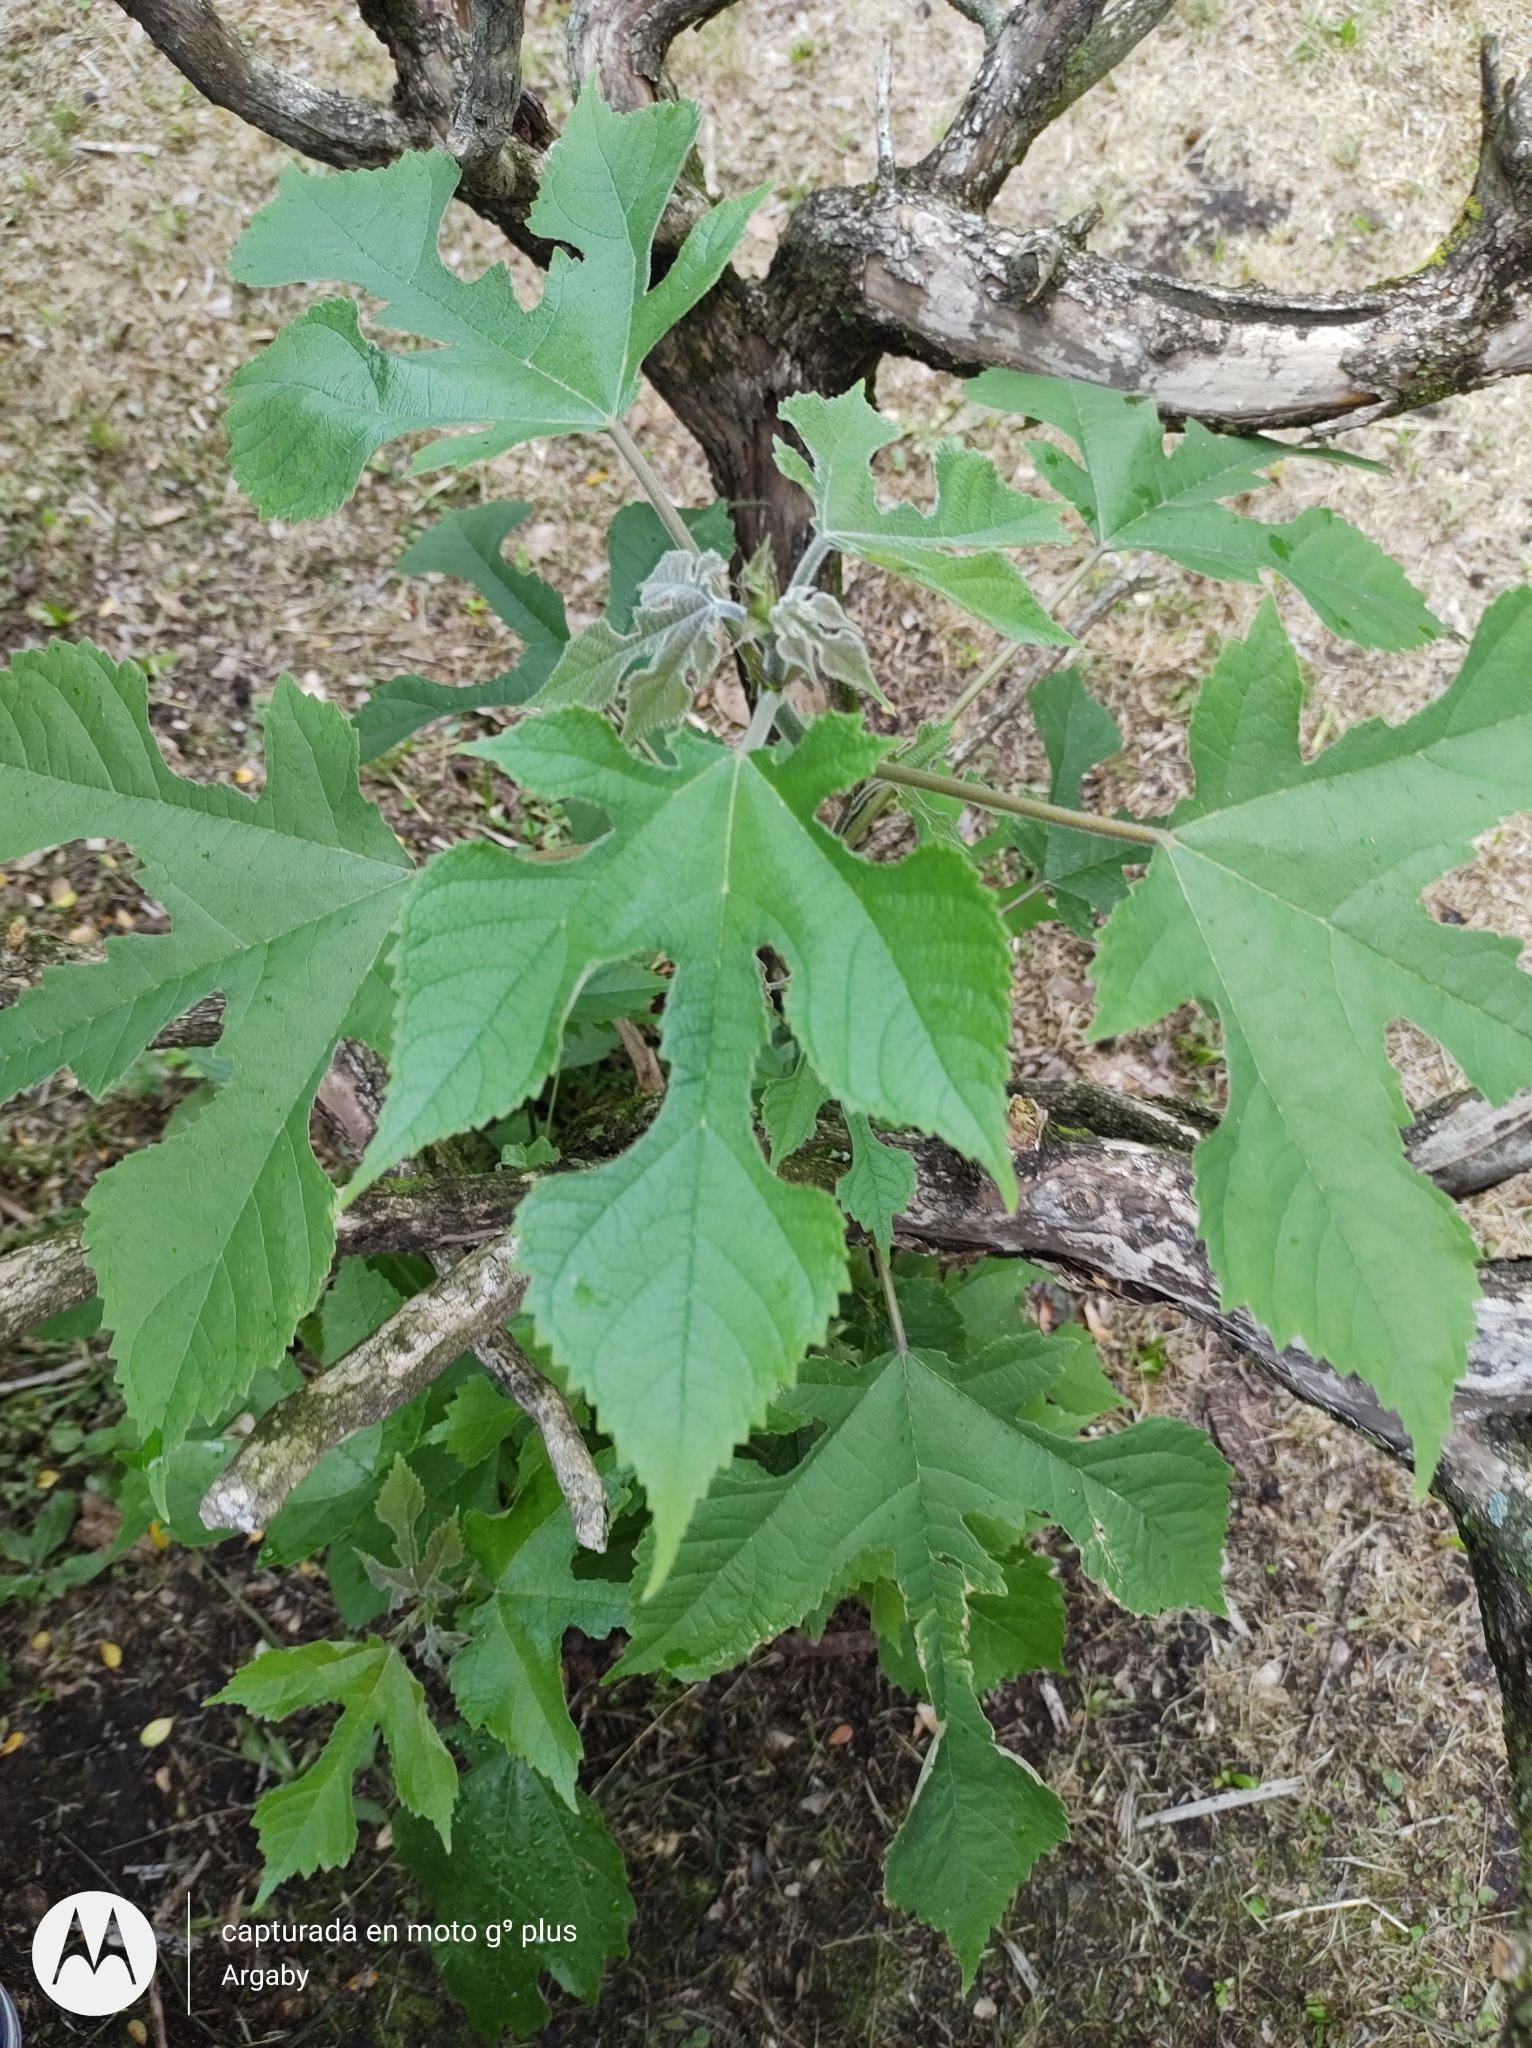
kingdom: Plantae
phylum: Tracheophyta
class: Magnoliopsida
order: Rosales
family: Moraceae
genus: Broussonetia
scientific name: Broussonetia papyrifera
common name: Paper mulberry
